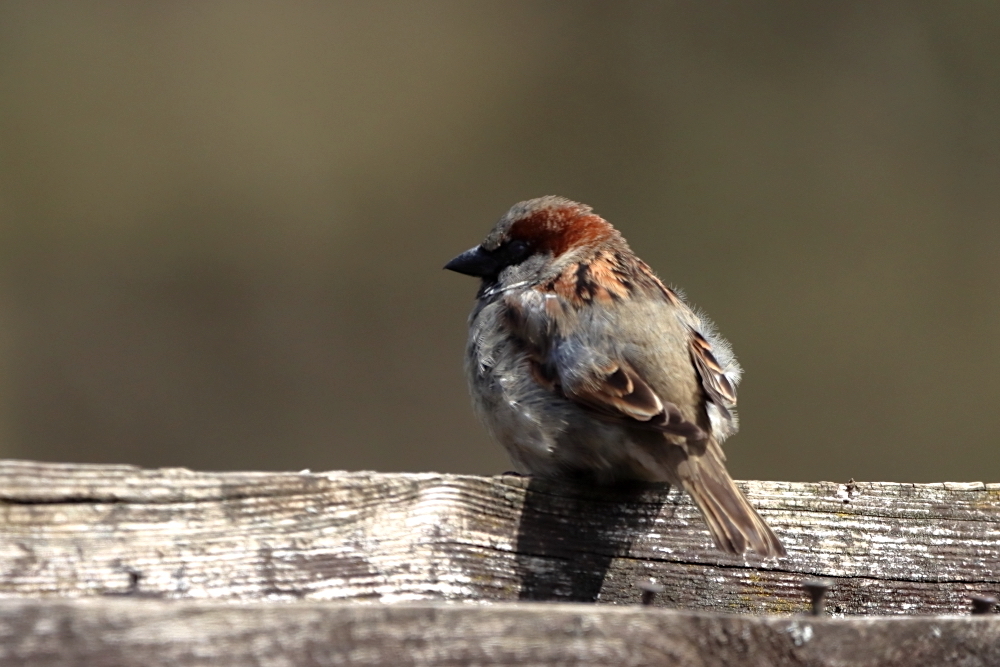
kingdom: Animalia
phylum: Chordata
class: Aves
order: Passeriformes
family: Passeridae
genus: Passer
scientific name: Passer domesticus
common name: House sparrow
